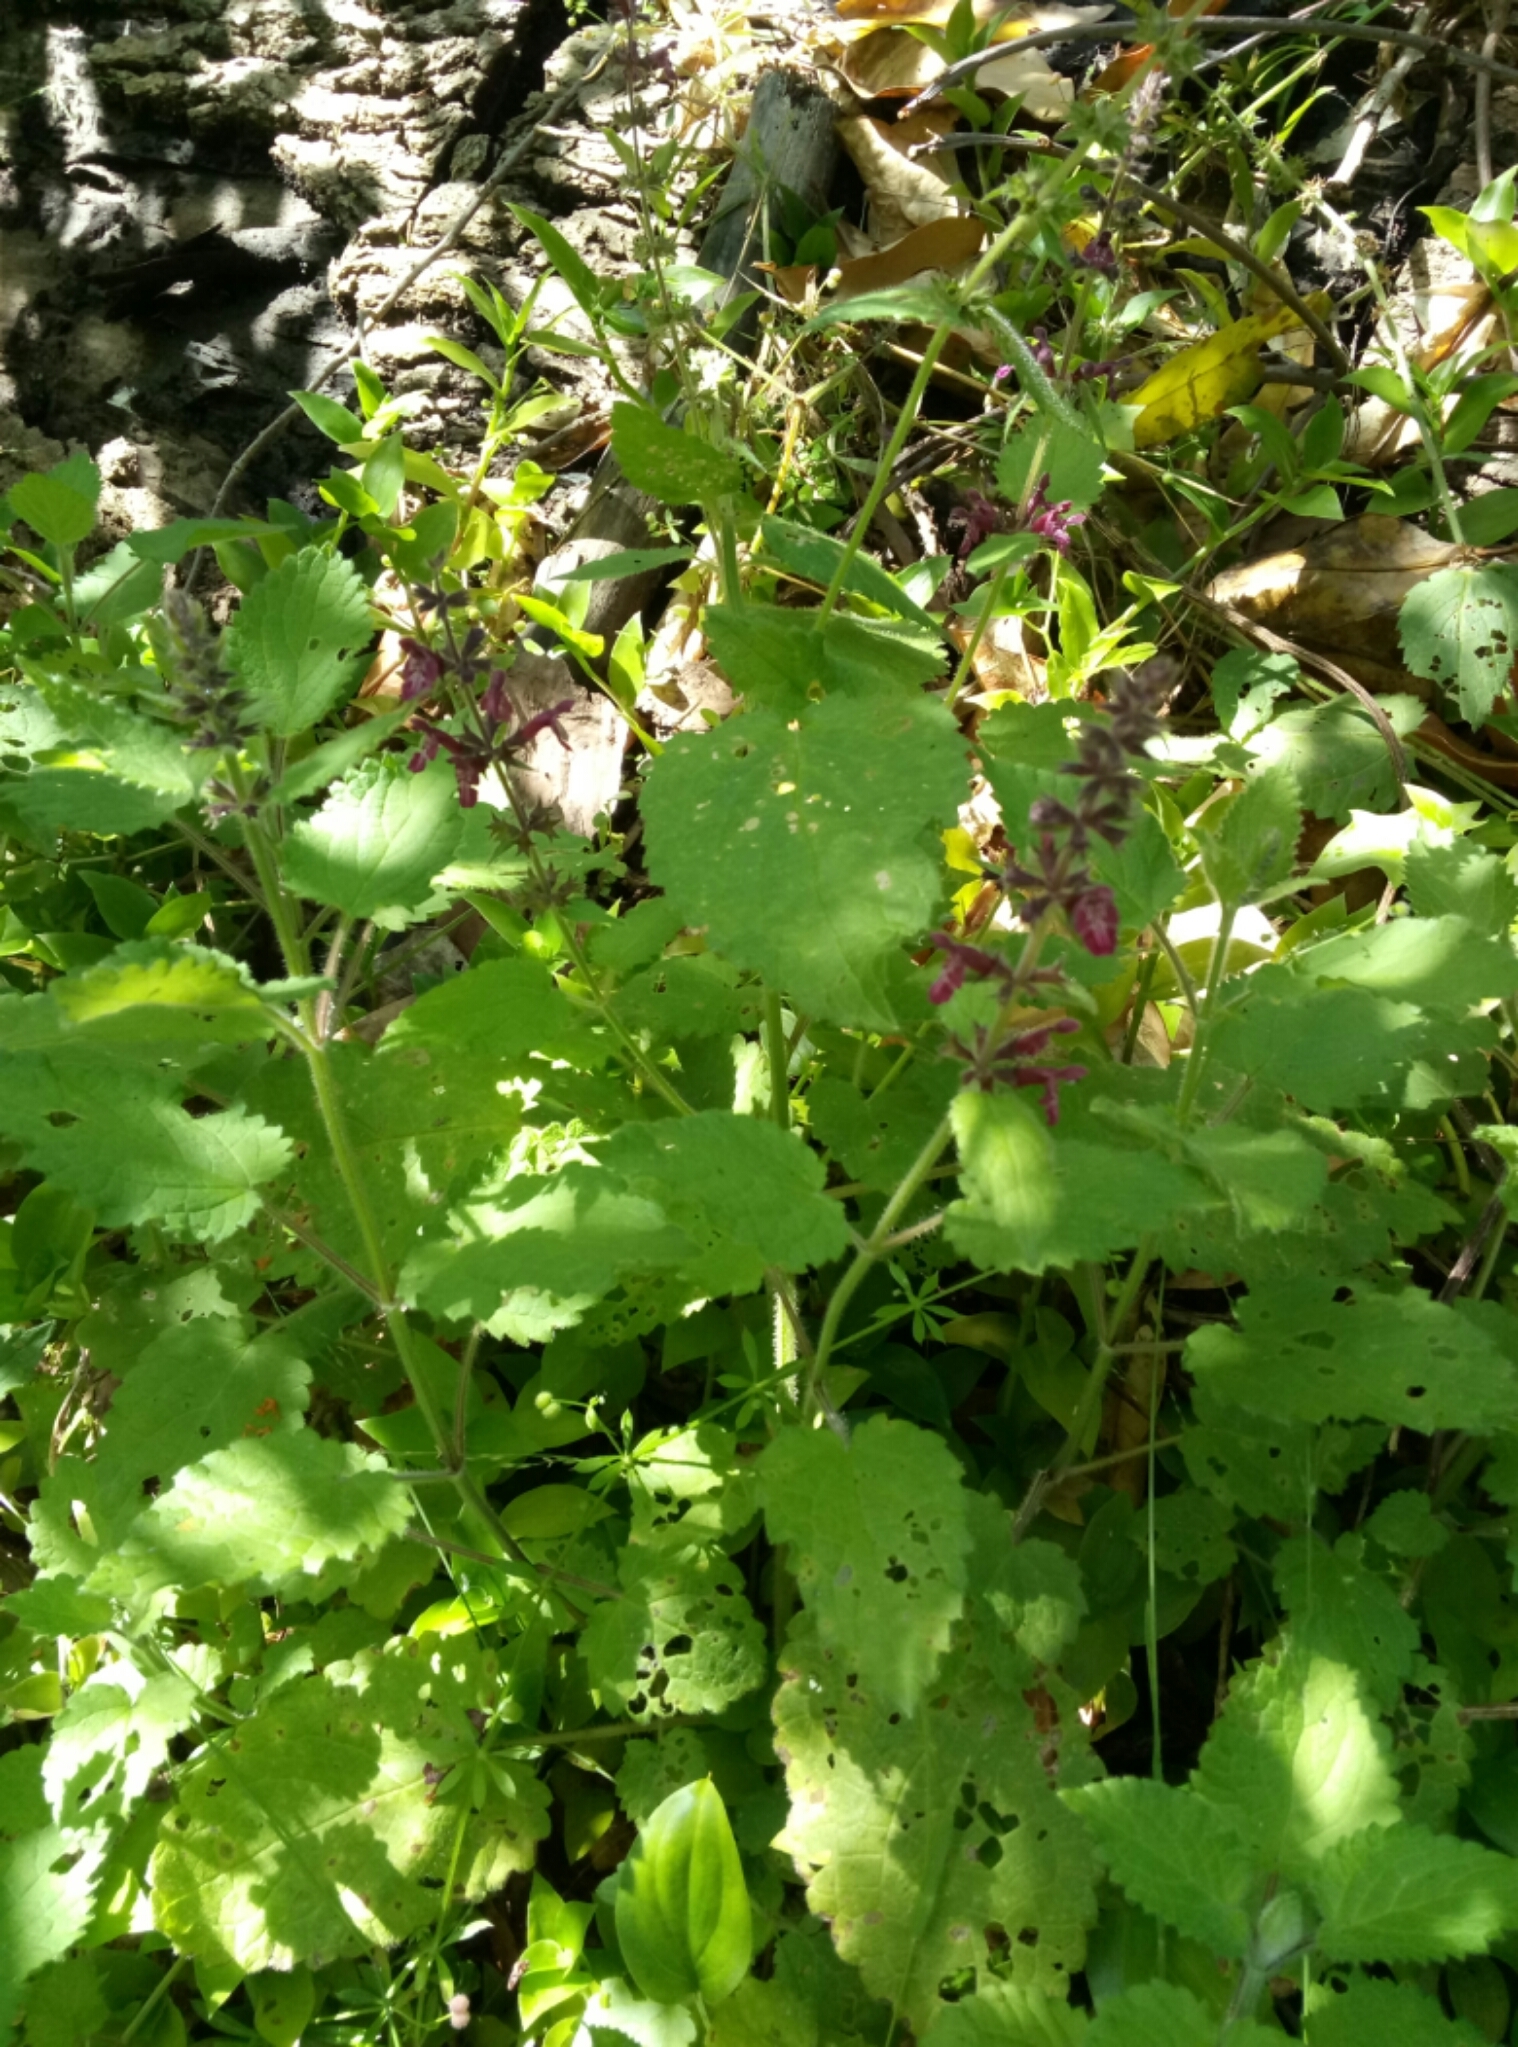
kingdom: Plantae
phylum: Tracheophyta
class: Magnoliopsida
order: Lamiales
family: Lamiaceae
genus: Stachys
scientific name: Stachys sylvatica
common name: Hedge woundwort
